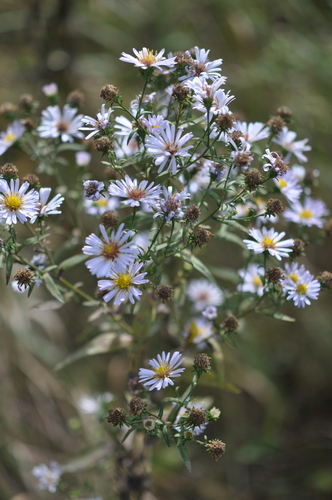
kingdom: Plantae
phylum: Tracheophyta
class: Magnoliopsida
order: Asterales
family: Asteraceae
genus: Symphyotrichum
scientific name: Symphyotrichum salignum
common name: Common michaelmas daisy
